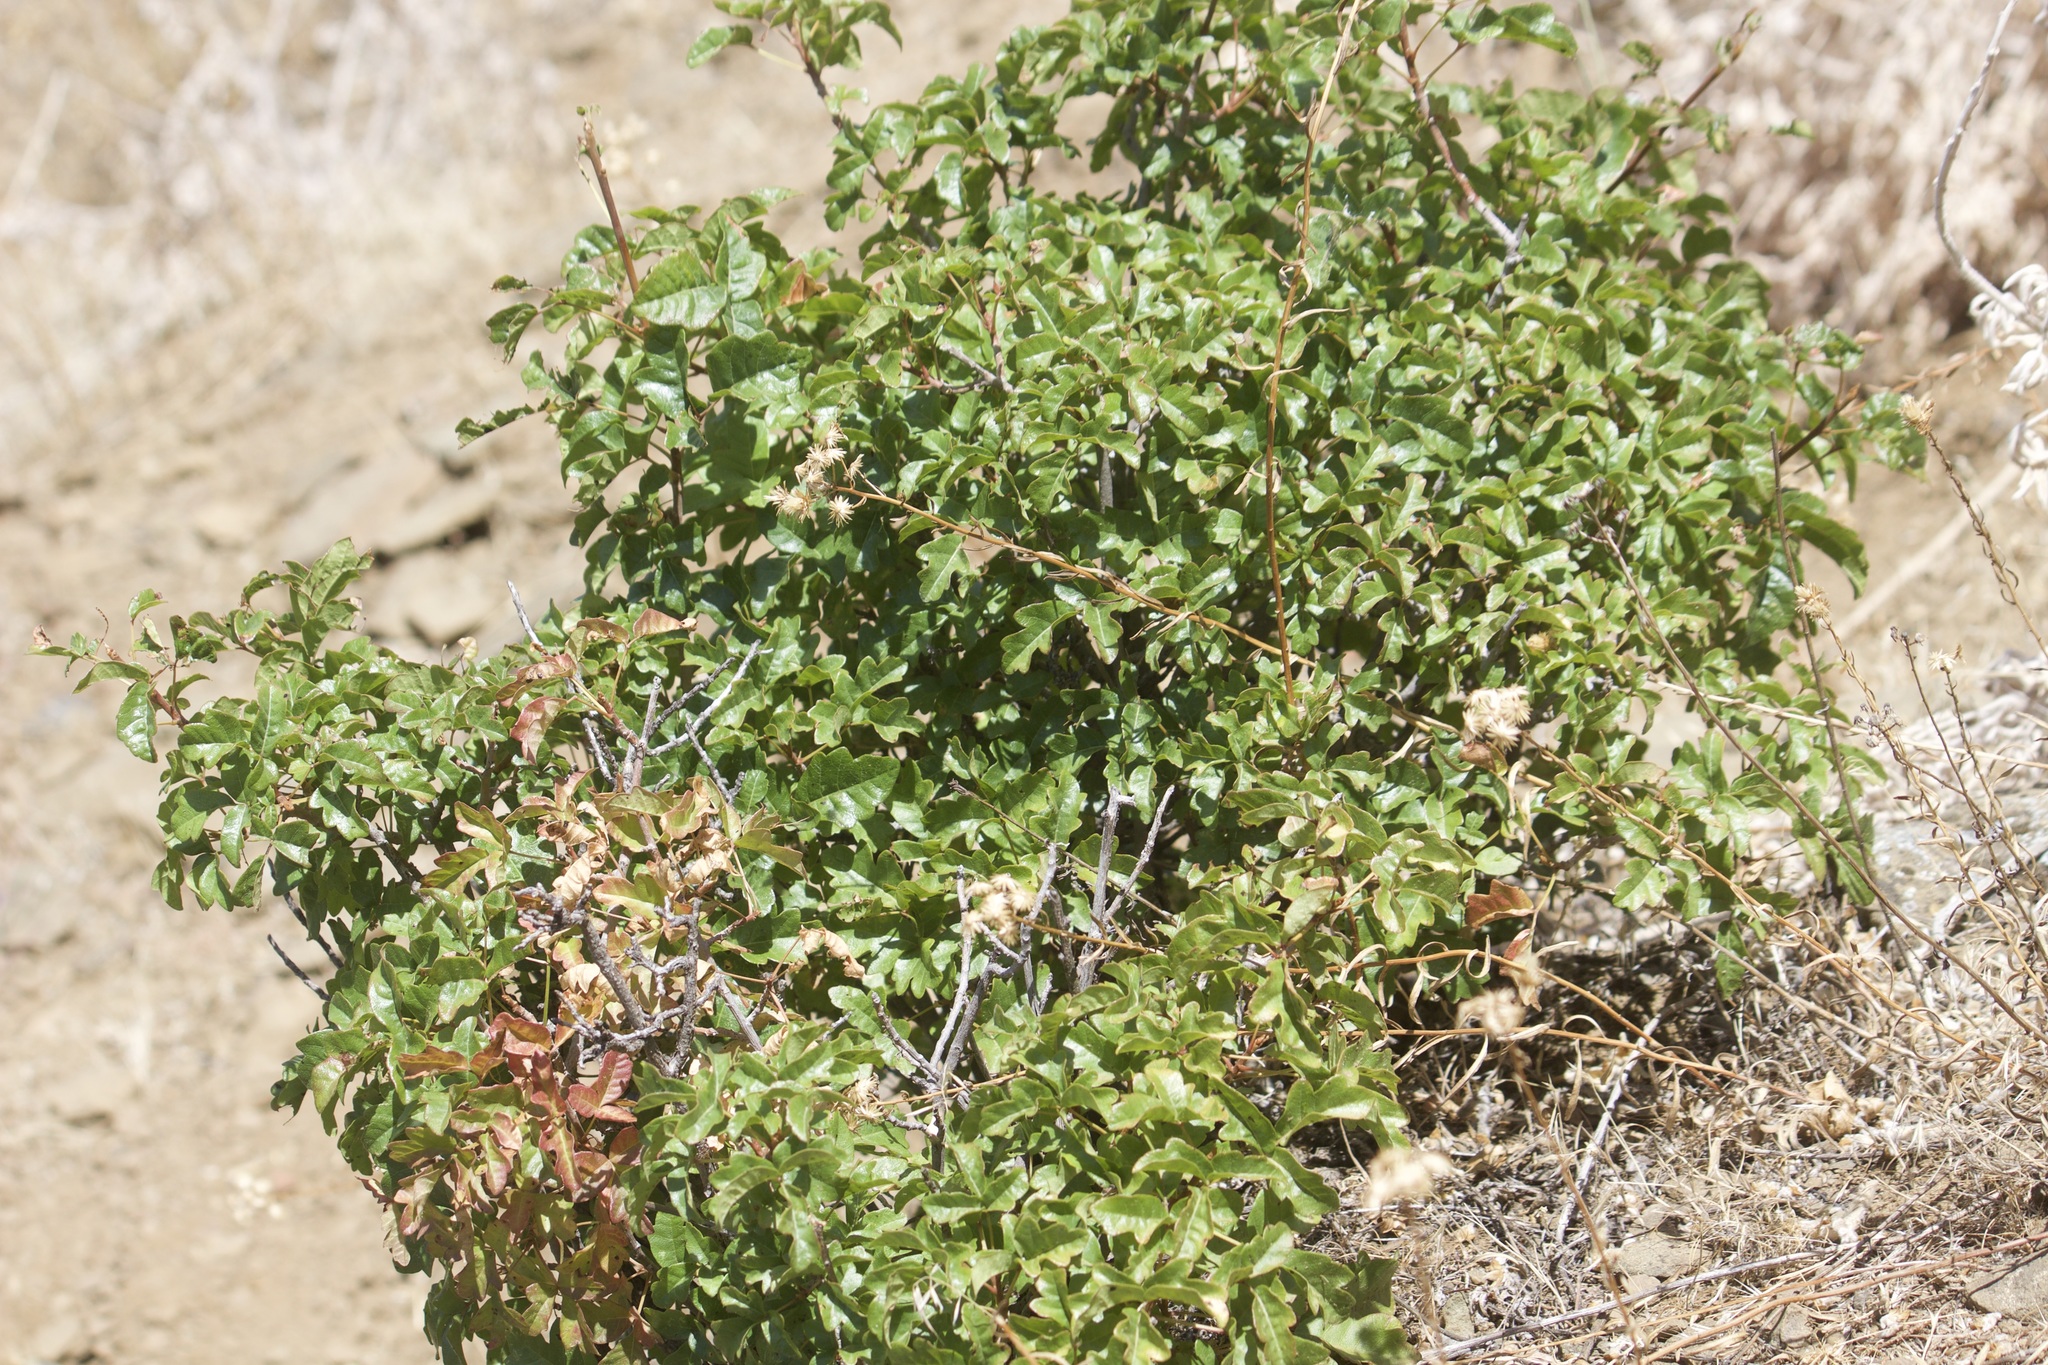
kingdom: Plantae
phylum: Tracheophyta
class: Magnoliopsida
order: Sapindales
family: Anacardiaceae
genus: Toxicodendron
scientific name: Toxicodendron diversilobum
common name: Pacific poison-oak
